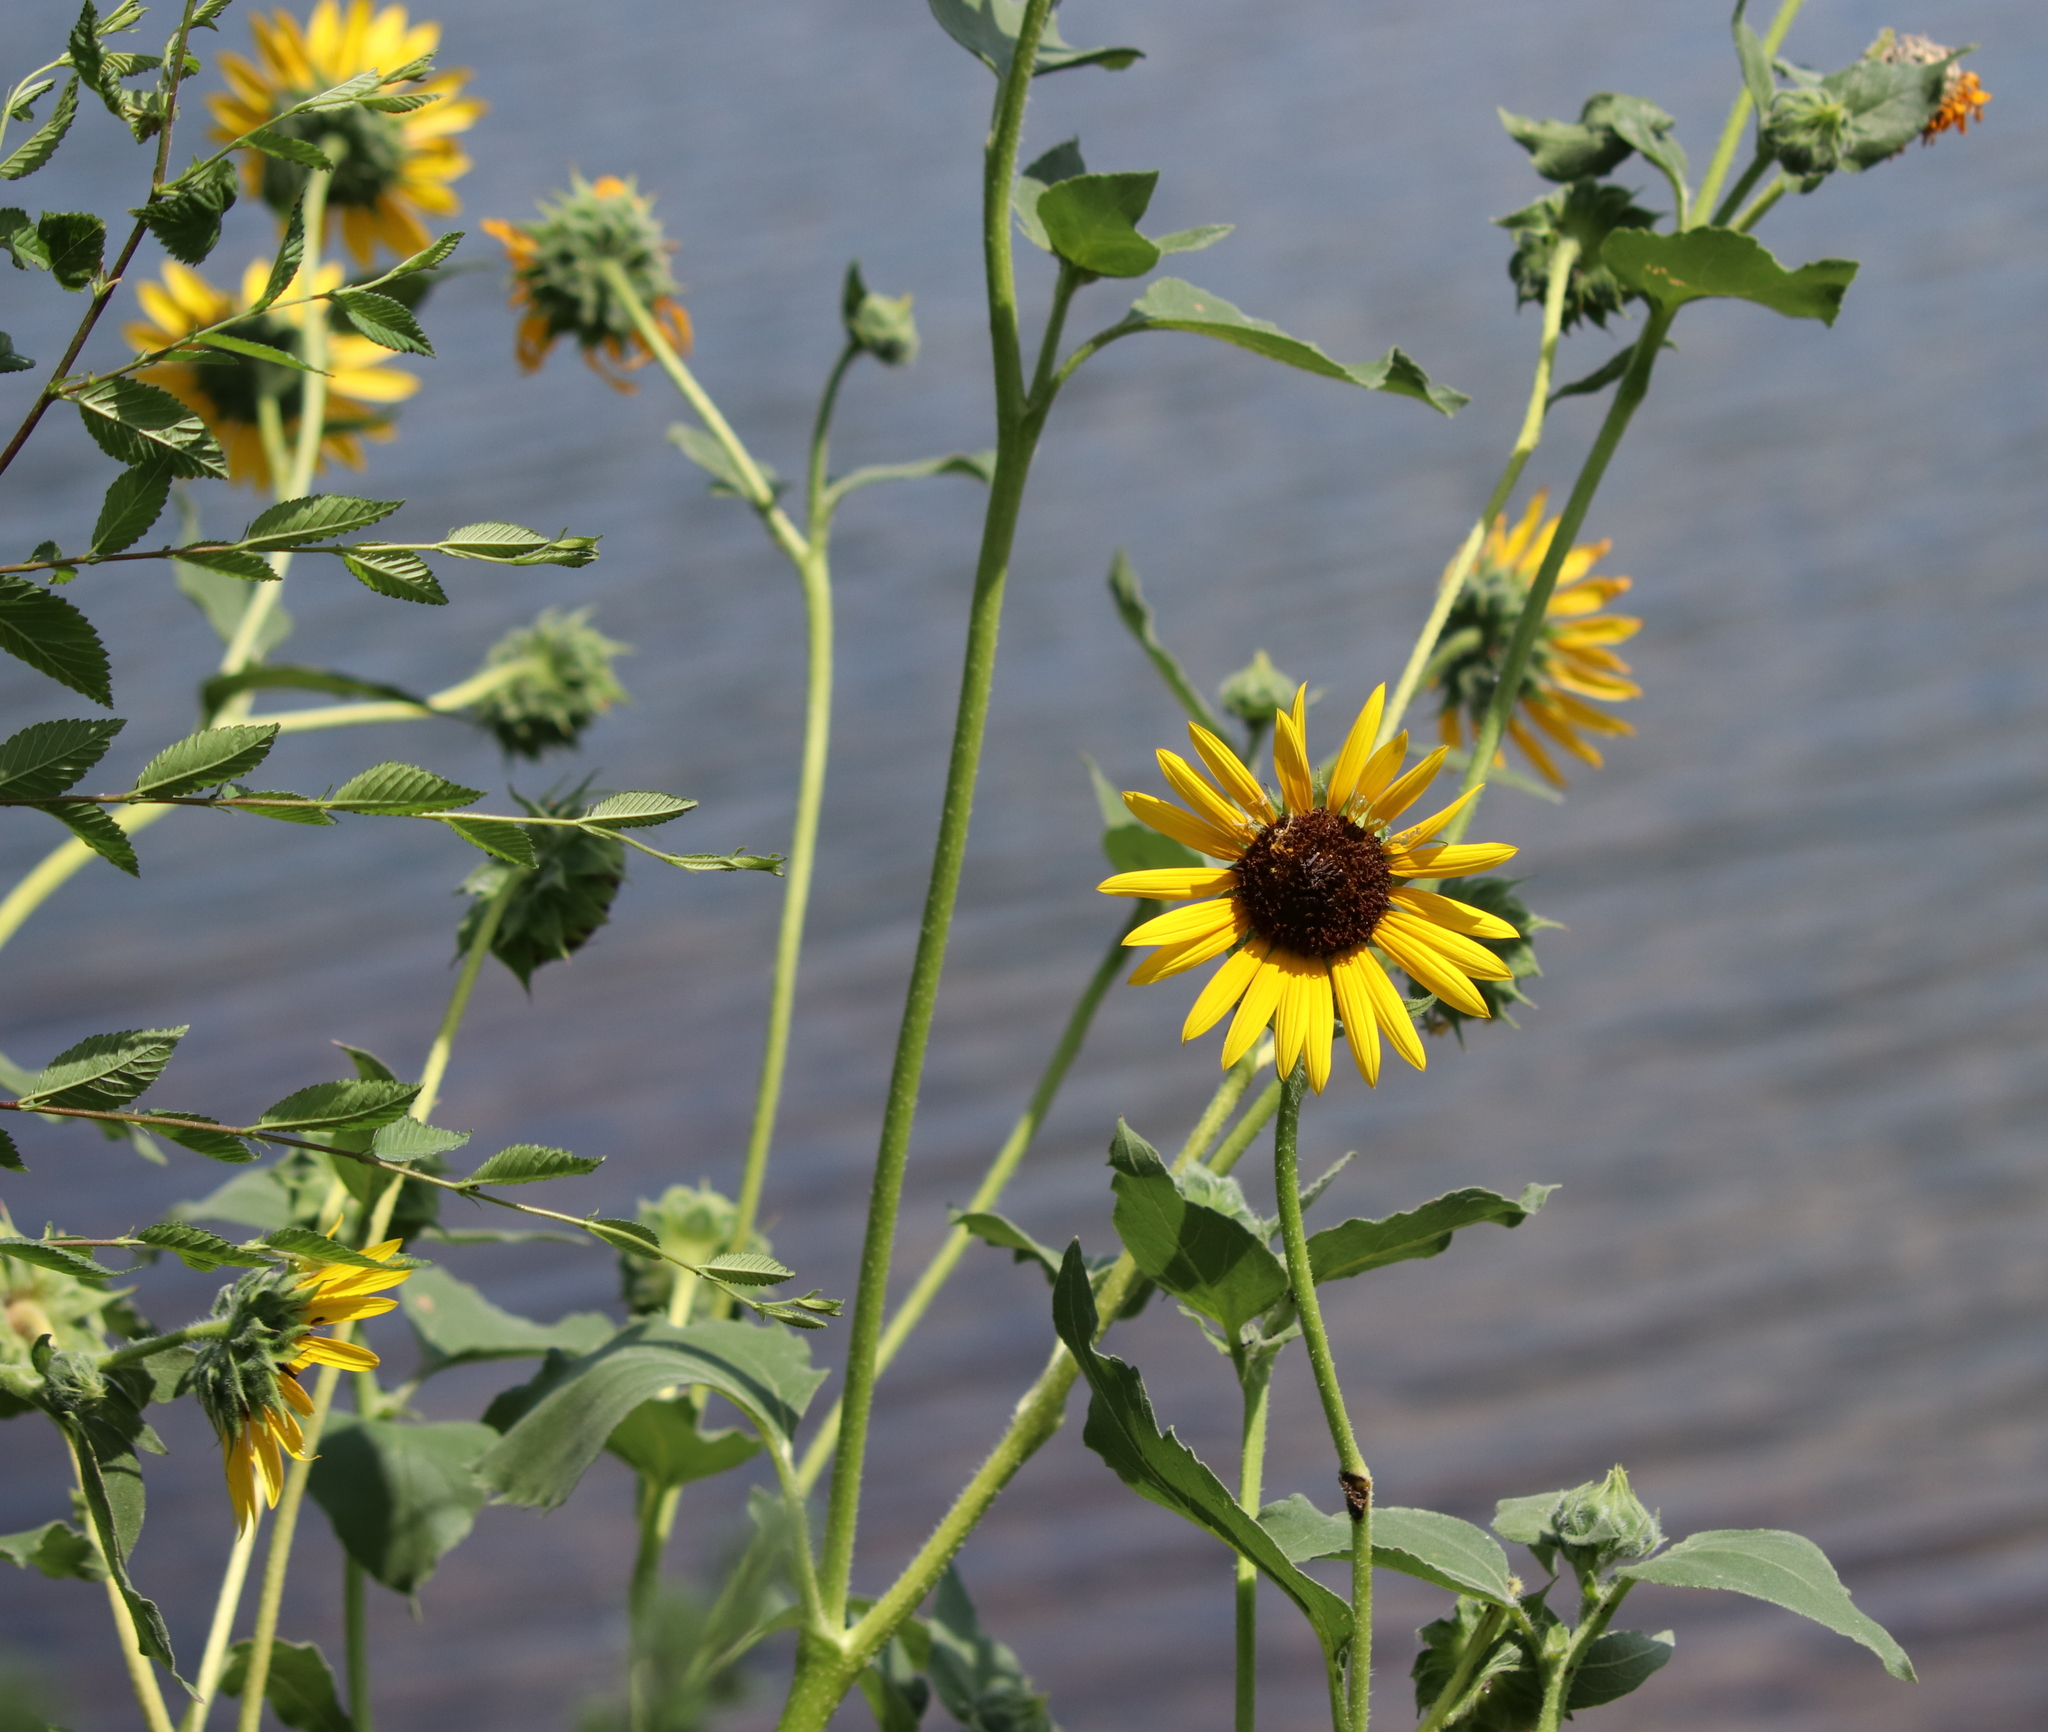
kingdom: Plantae
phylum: Tracheophyta
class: Magnoliopsida
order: Asterales
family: Asteraceae
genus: Helianthus
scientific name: Helianthus annuus
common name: Sunflower
